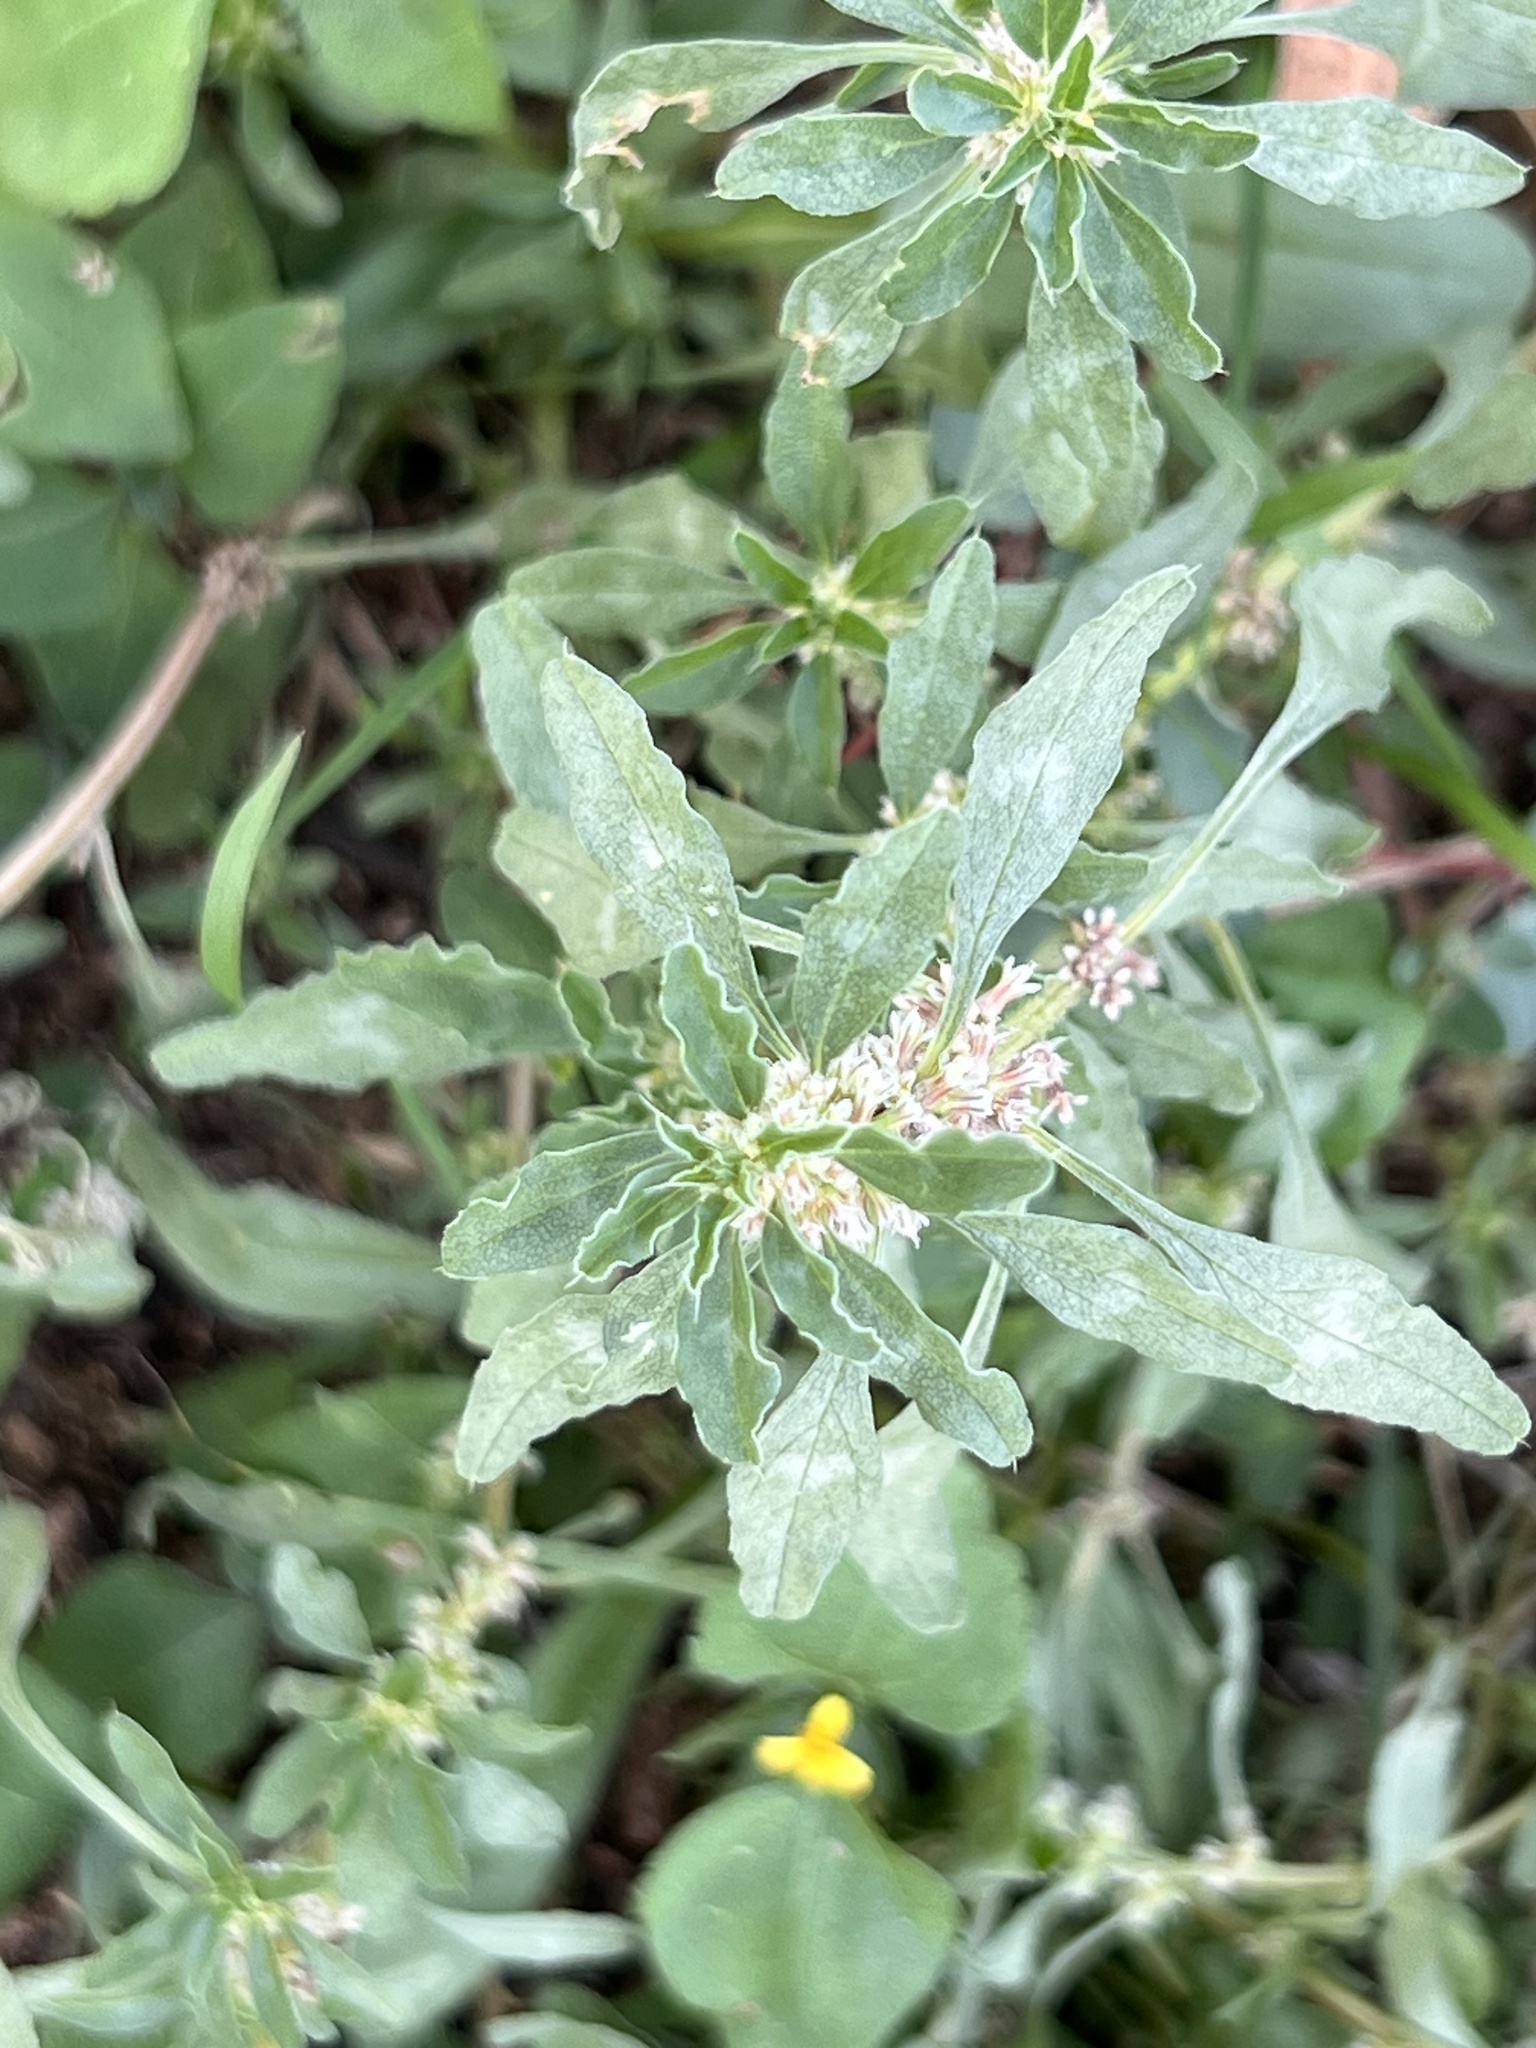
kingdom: Plantae
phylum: Tracheophyta
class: Magnoliopsida
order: Caryophyllales
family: Amaranthaceae
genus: Amaranthus
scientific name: Amaranthus polygonoides
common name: Tropical amaranth
